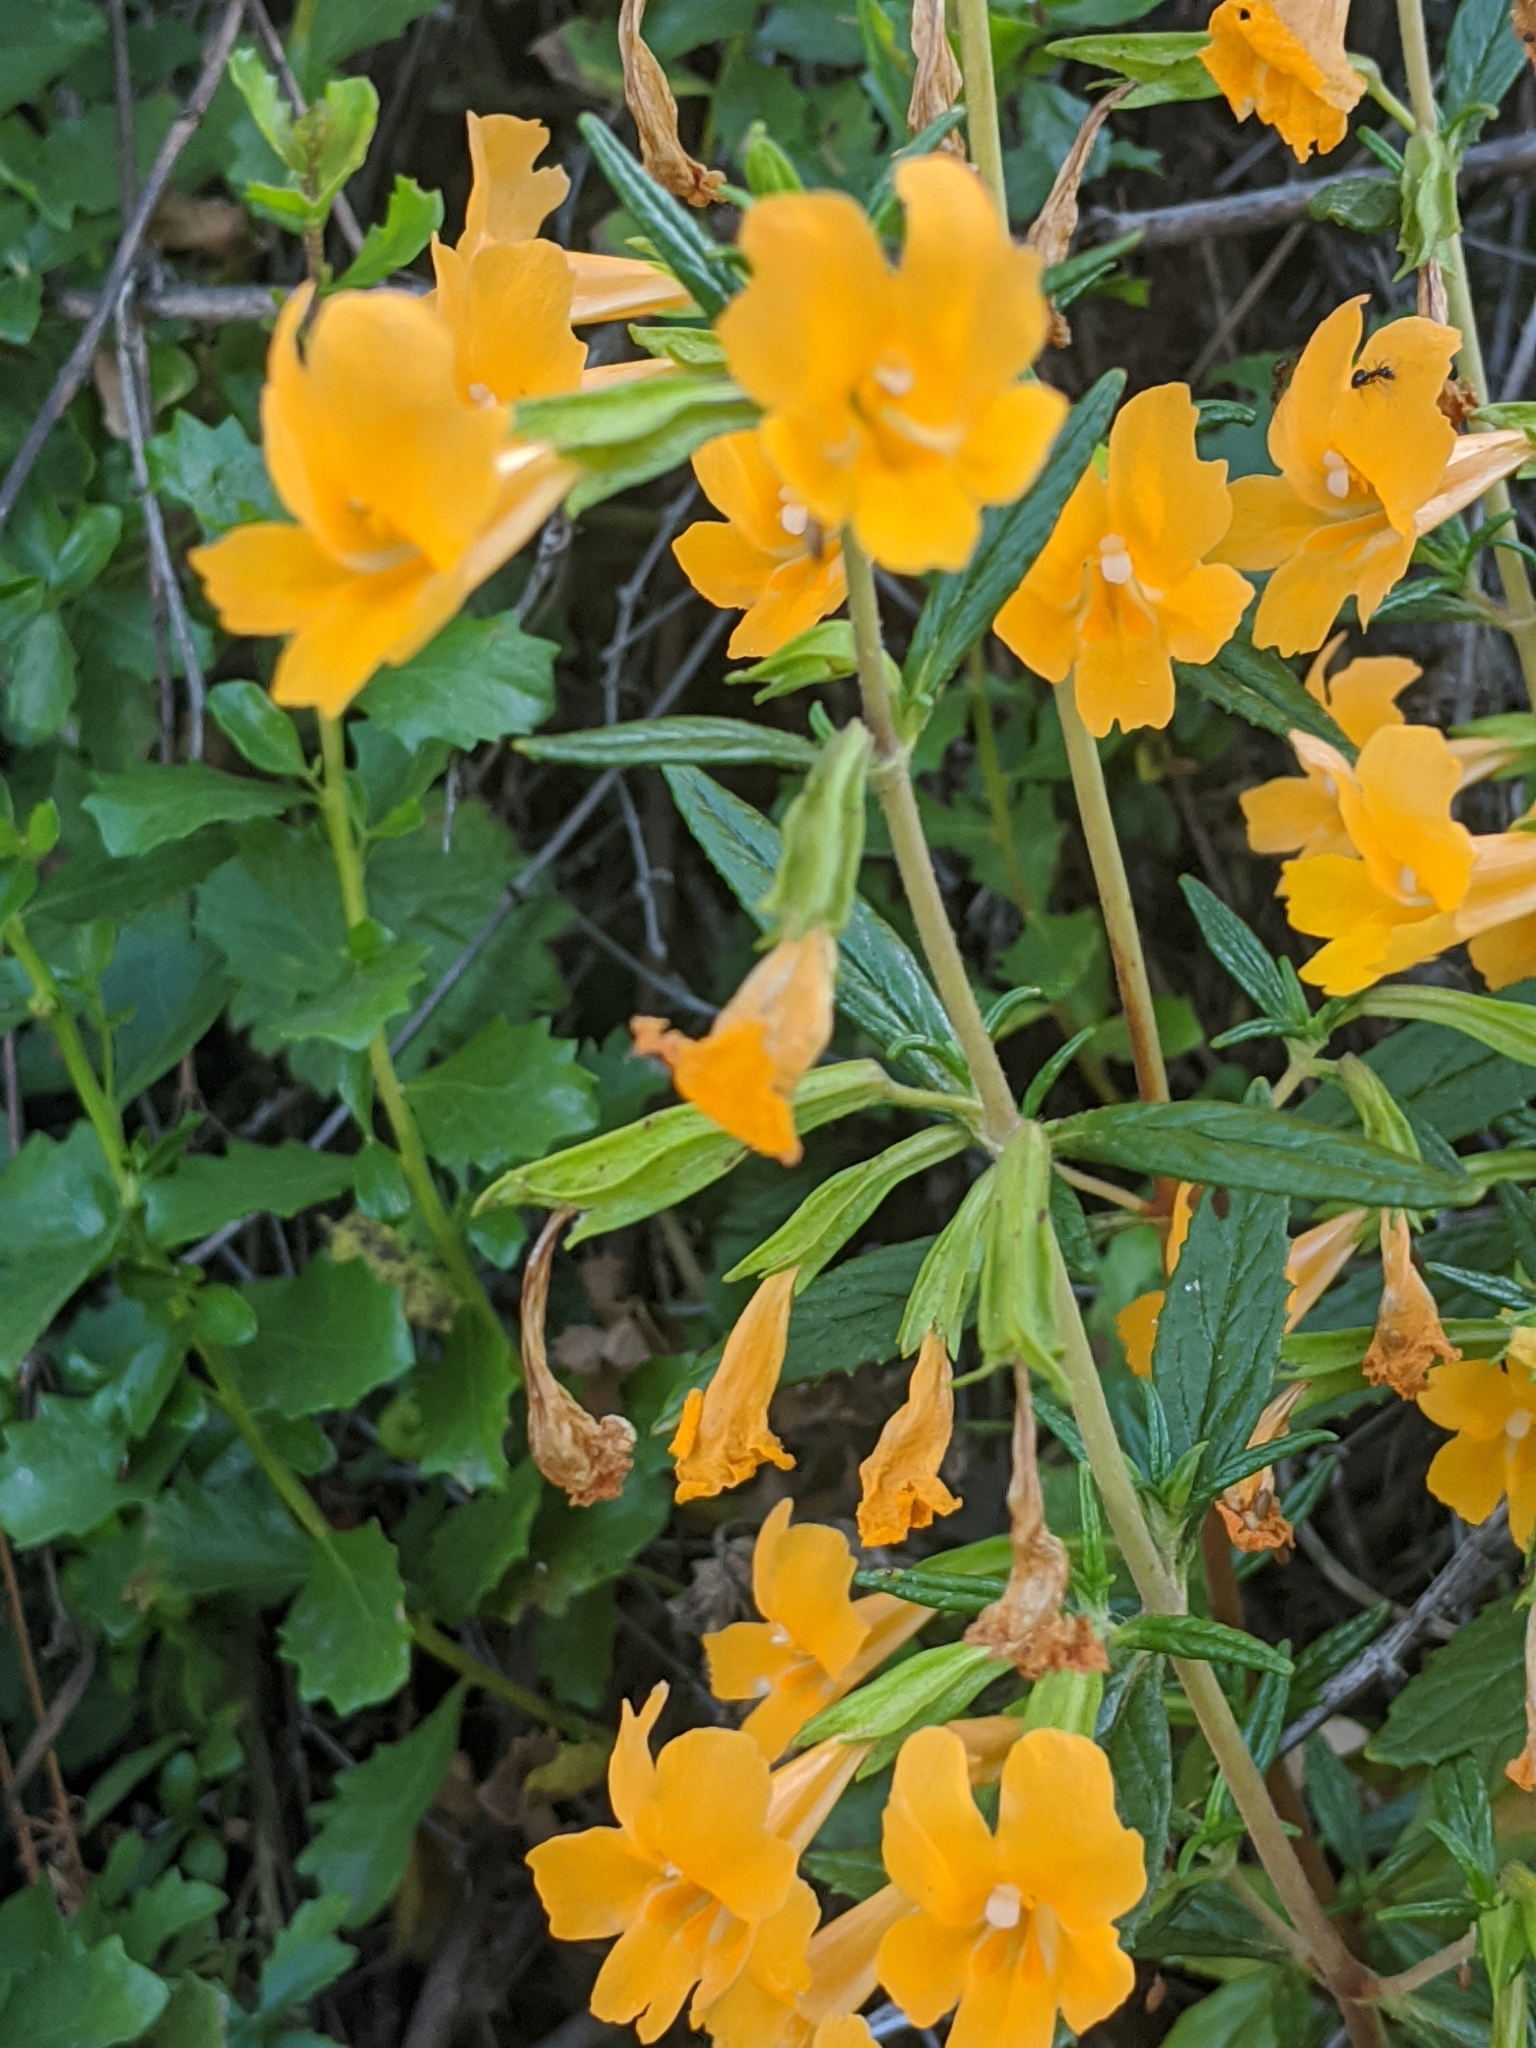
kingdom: Plantae
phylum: Tracheophyta
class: Magnoliopsida
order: Lamiales
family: Phrymaceae
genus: Diplacus
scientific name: Diplacus aurantiacus
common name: Bush monkey-flower
